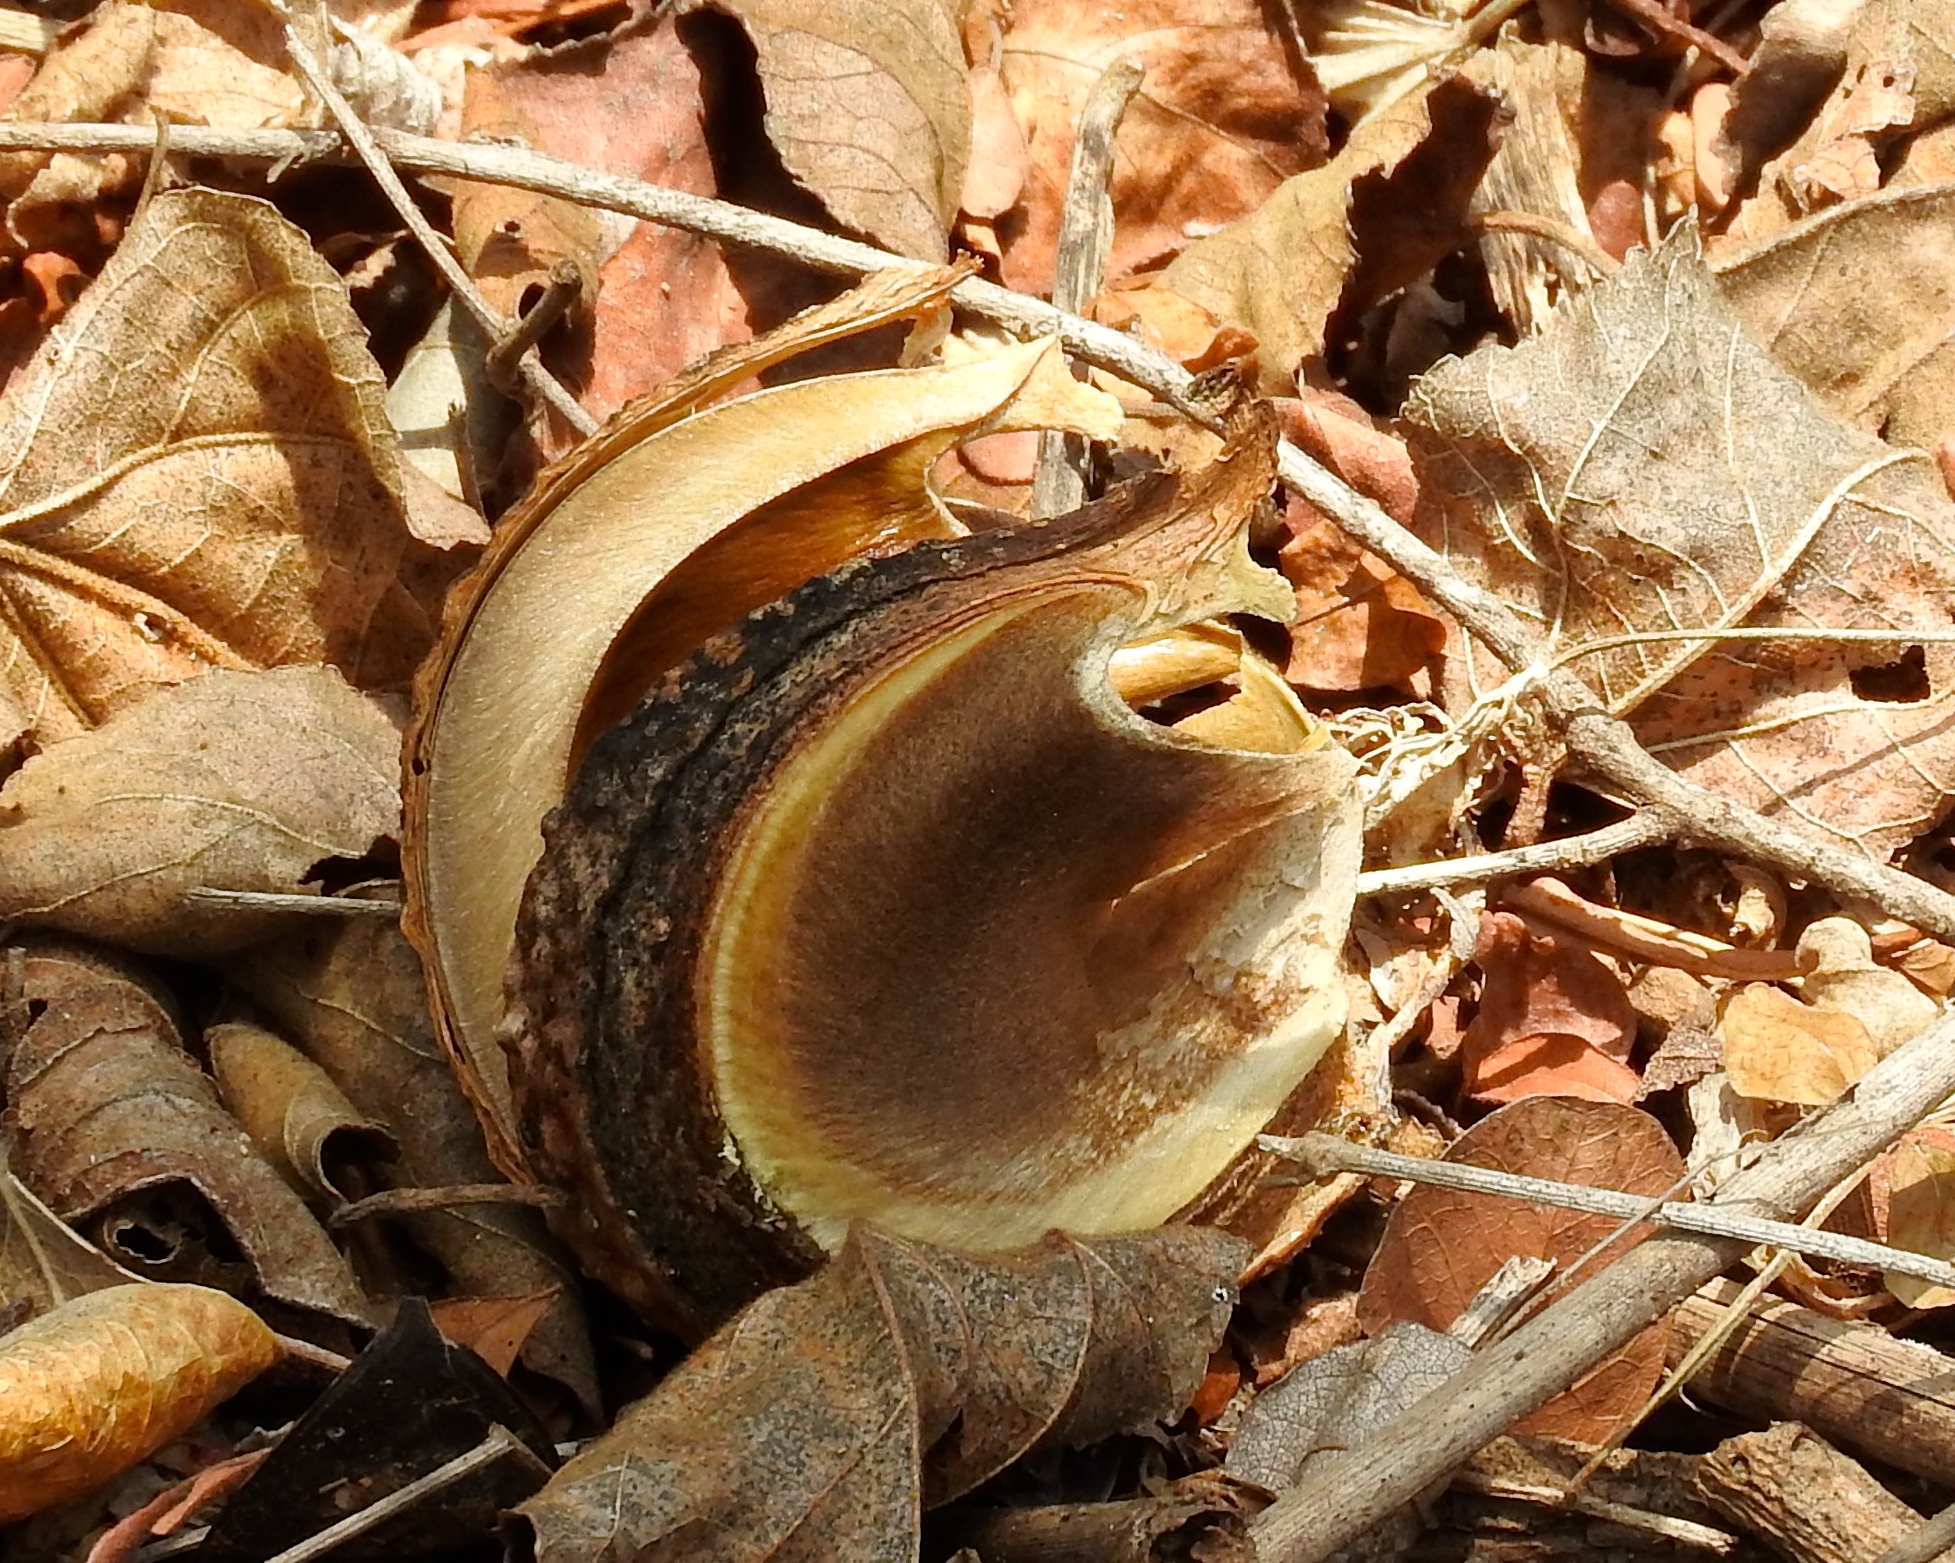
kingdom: Plantae
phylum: Tracheophyta
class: Magnoliopsida
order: Malpighiales
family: Euphorbiaceae
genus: Hura
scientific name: Hura polyandra
